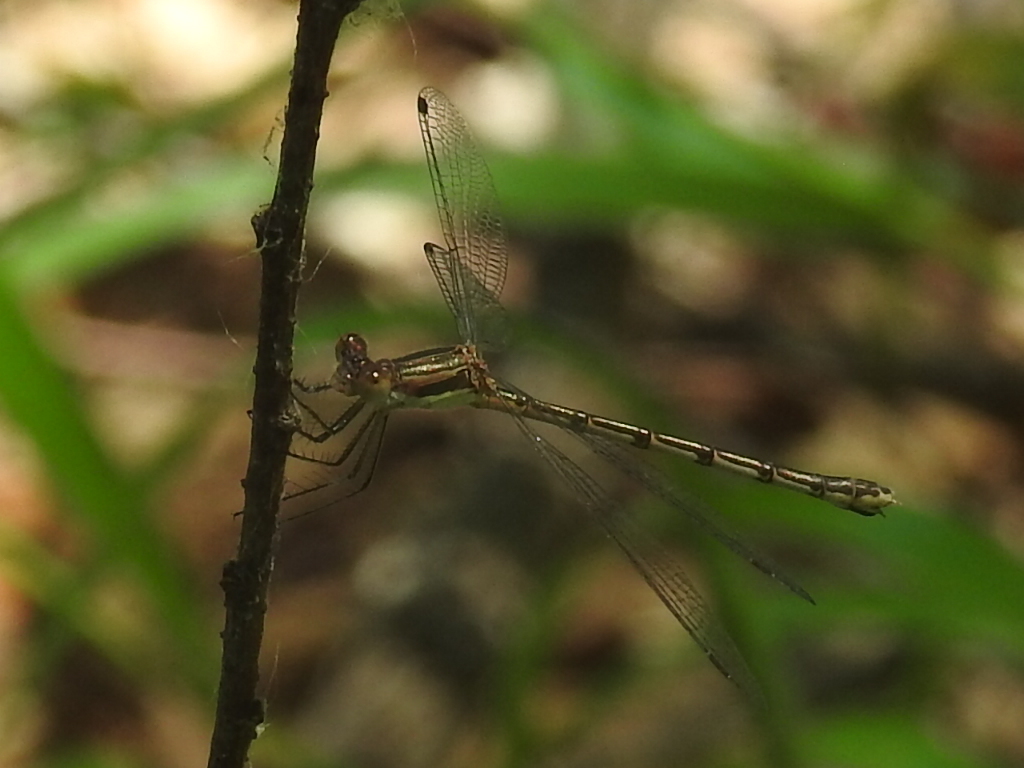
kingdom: Animalia
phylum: Arthropoda
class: Insecta
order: Odonata
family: Lestidae
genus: Lestes
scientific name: Lestes australis
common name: Southern spreadwing
